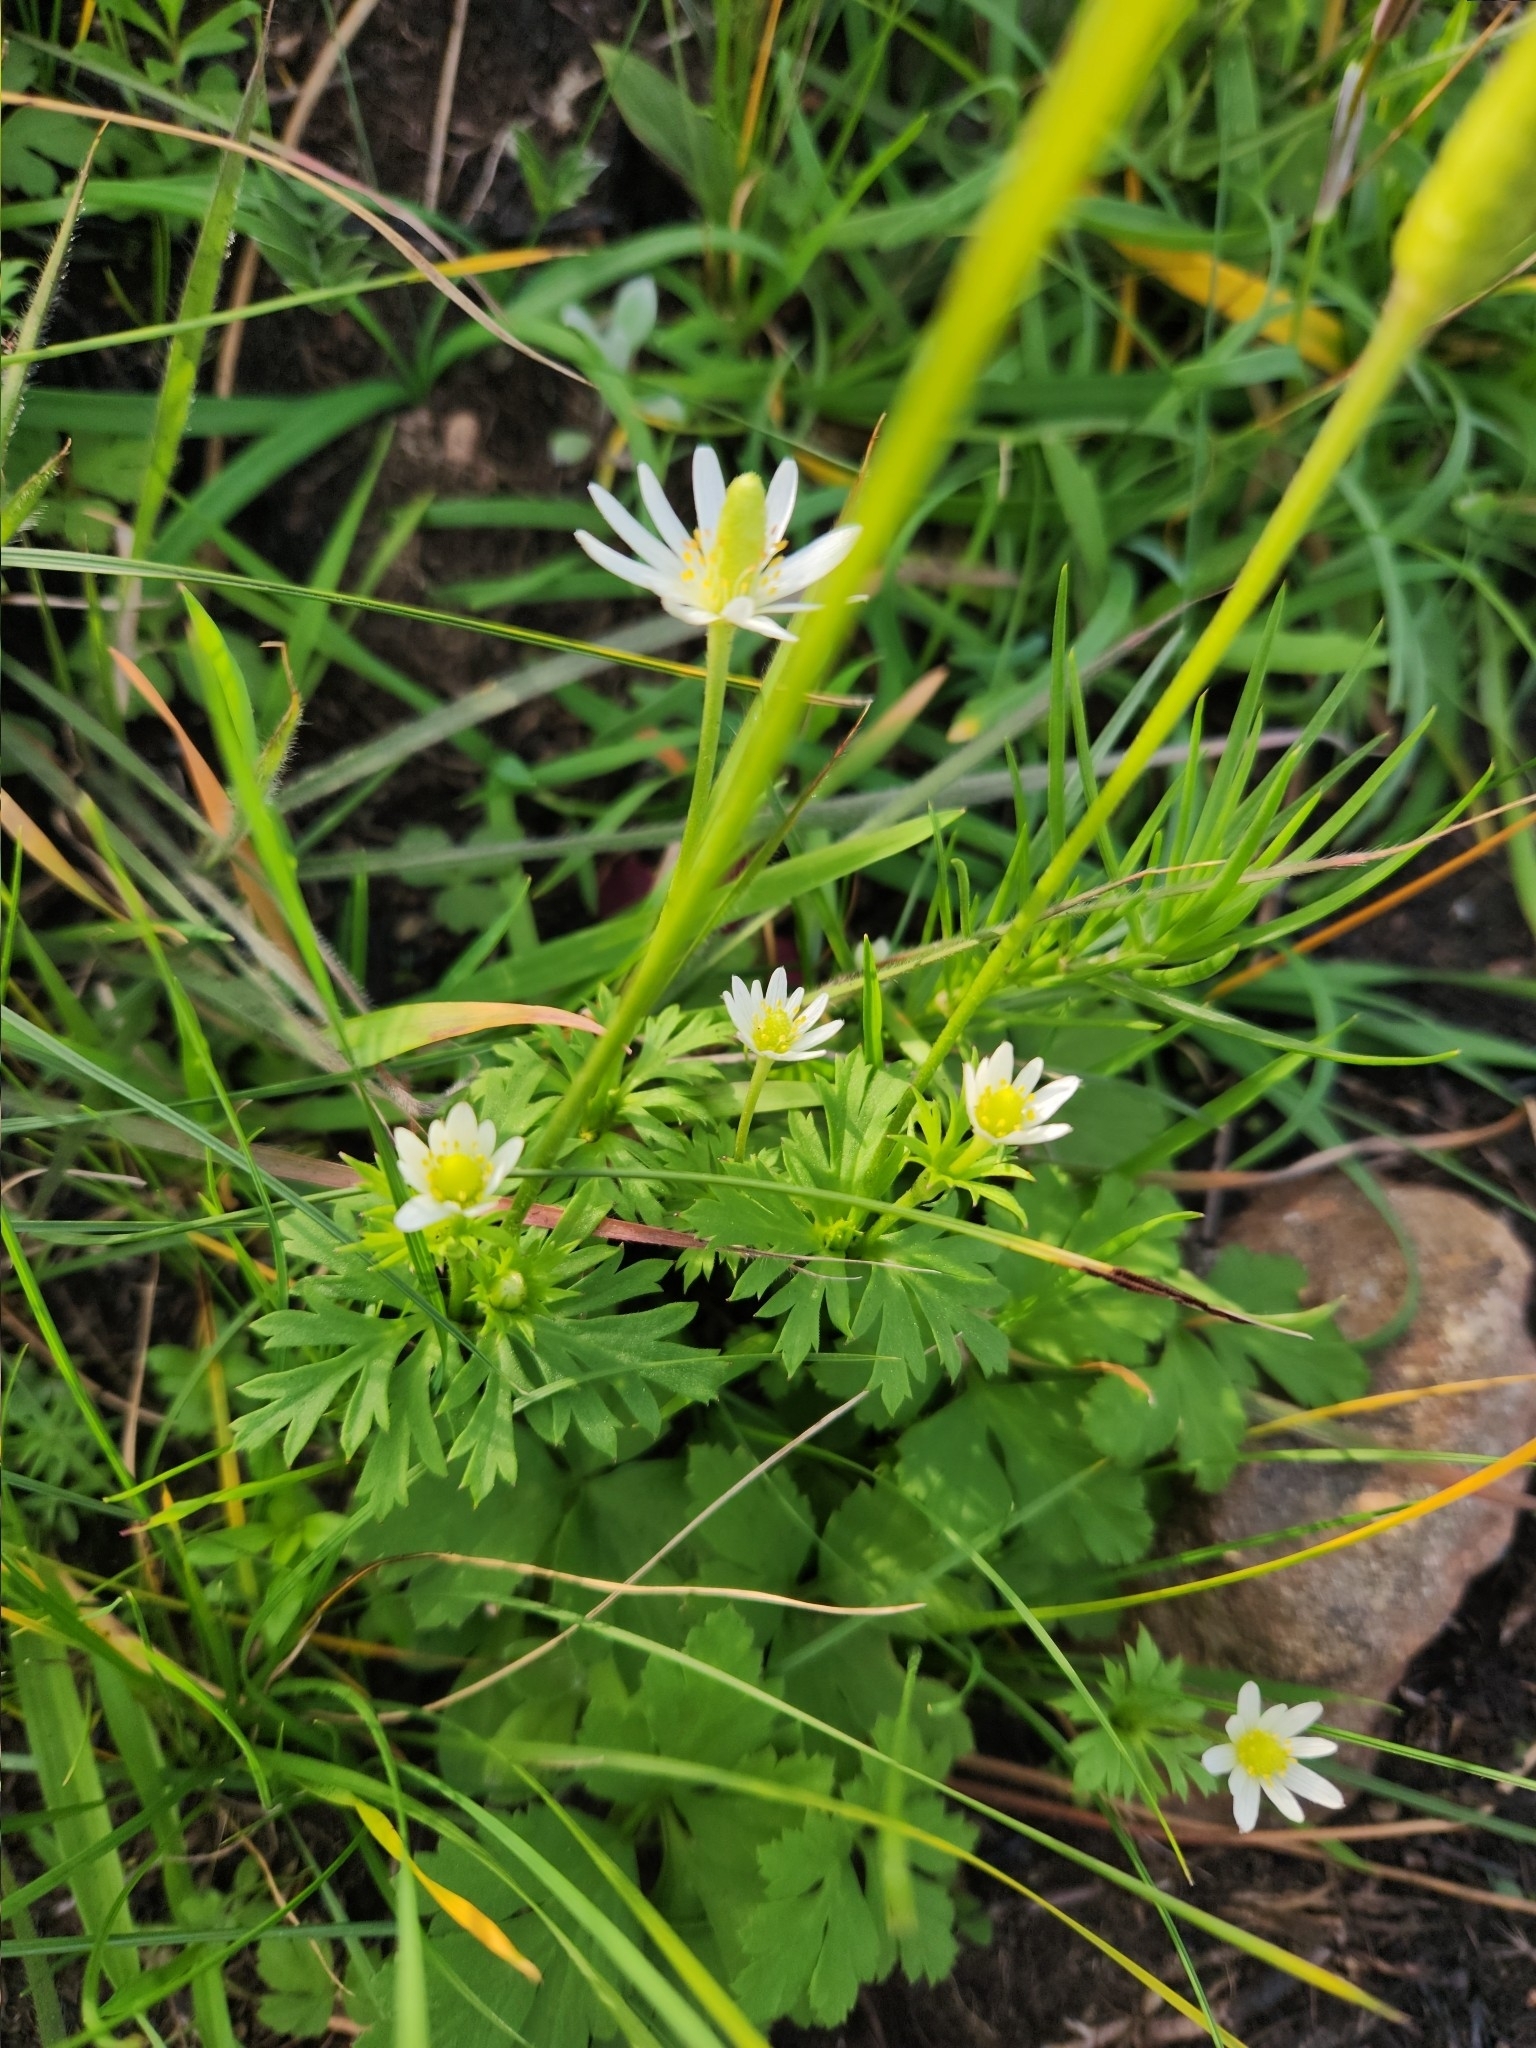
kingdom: Plantae
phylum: Tracheophyta
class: Magnoliopsida
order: Ranunculales
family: Ranunculaceae
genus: Anemone
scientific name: Anemone decapetala
